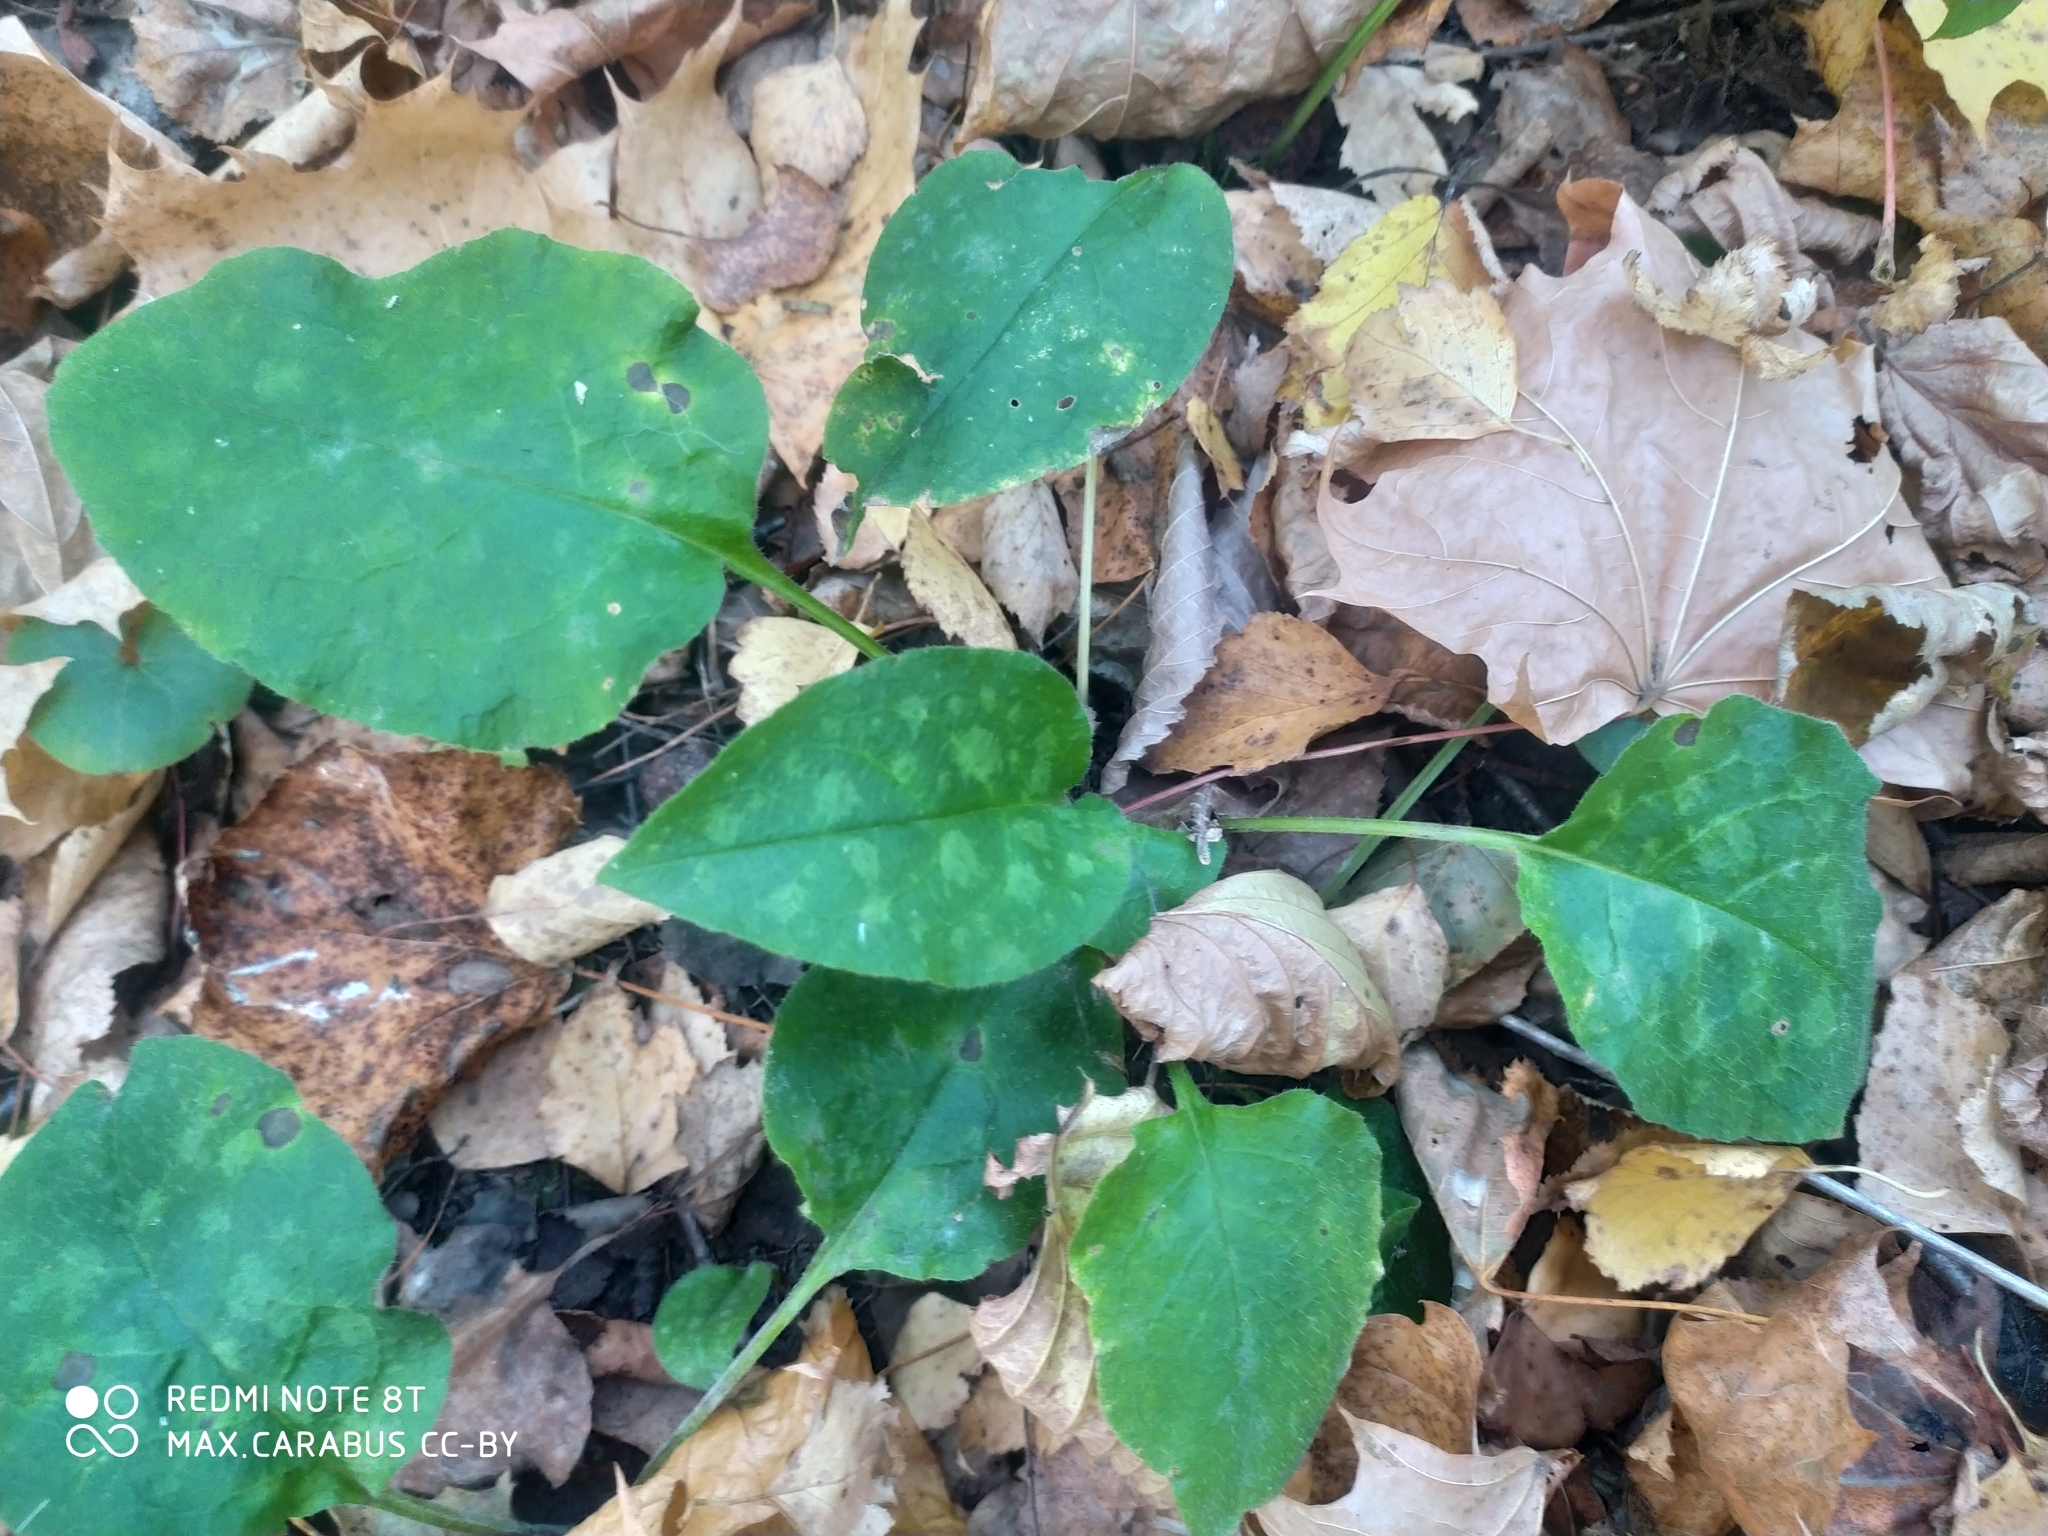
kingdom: Plantae
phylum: Tracheophyta
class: Magnoliopsida
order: Boraginales
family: Boraginaceae
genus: Pulmonaria
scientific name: Pulmonaria obscura
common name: Suffolk lungwort
